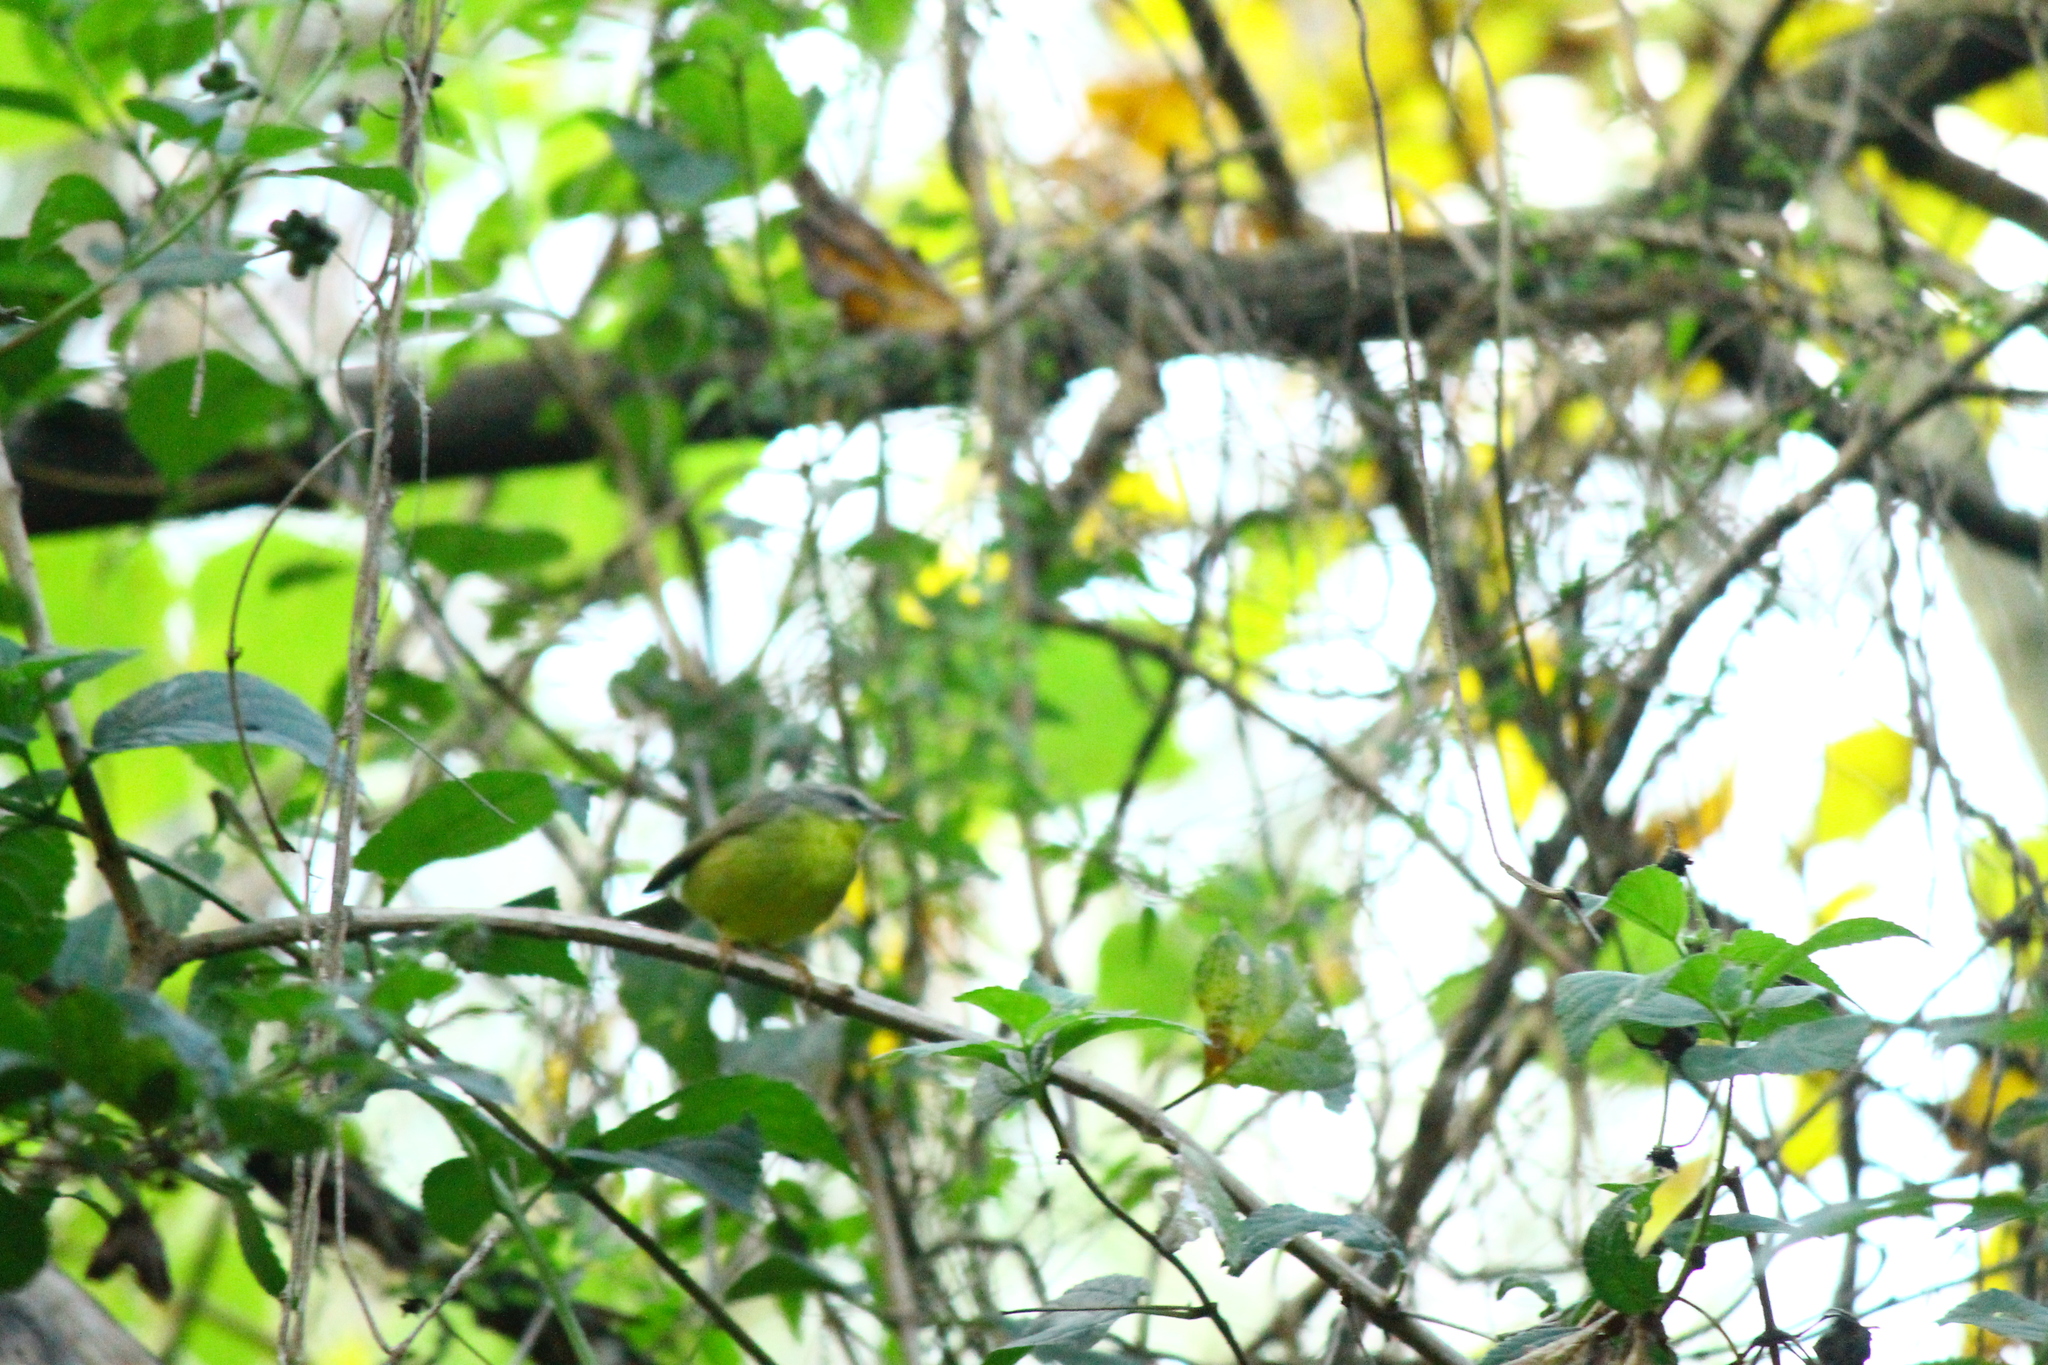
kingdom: Animalia
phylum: Chordata
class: Aves
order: Passeriformes
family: Parulidae
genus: Basileuterus
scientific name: Basileuterus culicivorus
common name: Golden-crowned warbler
